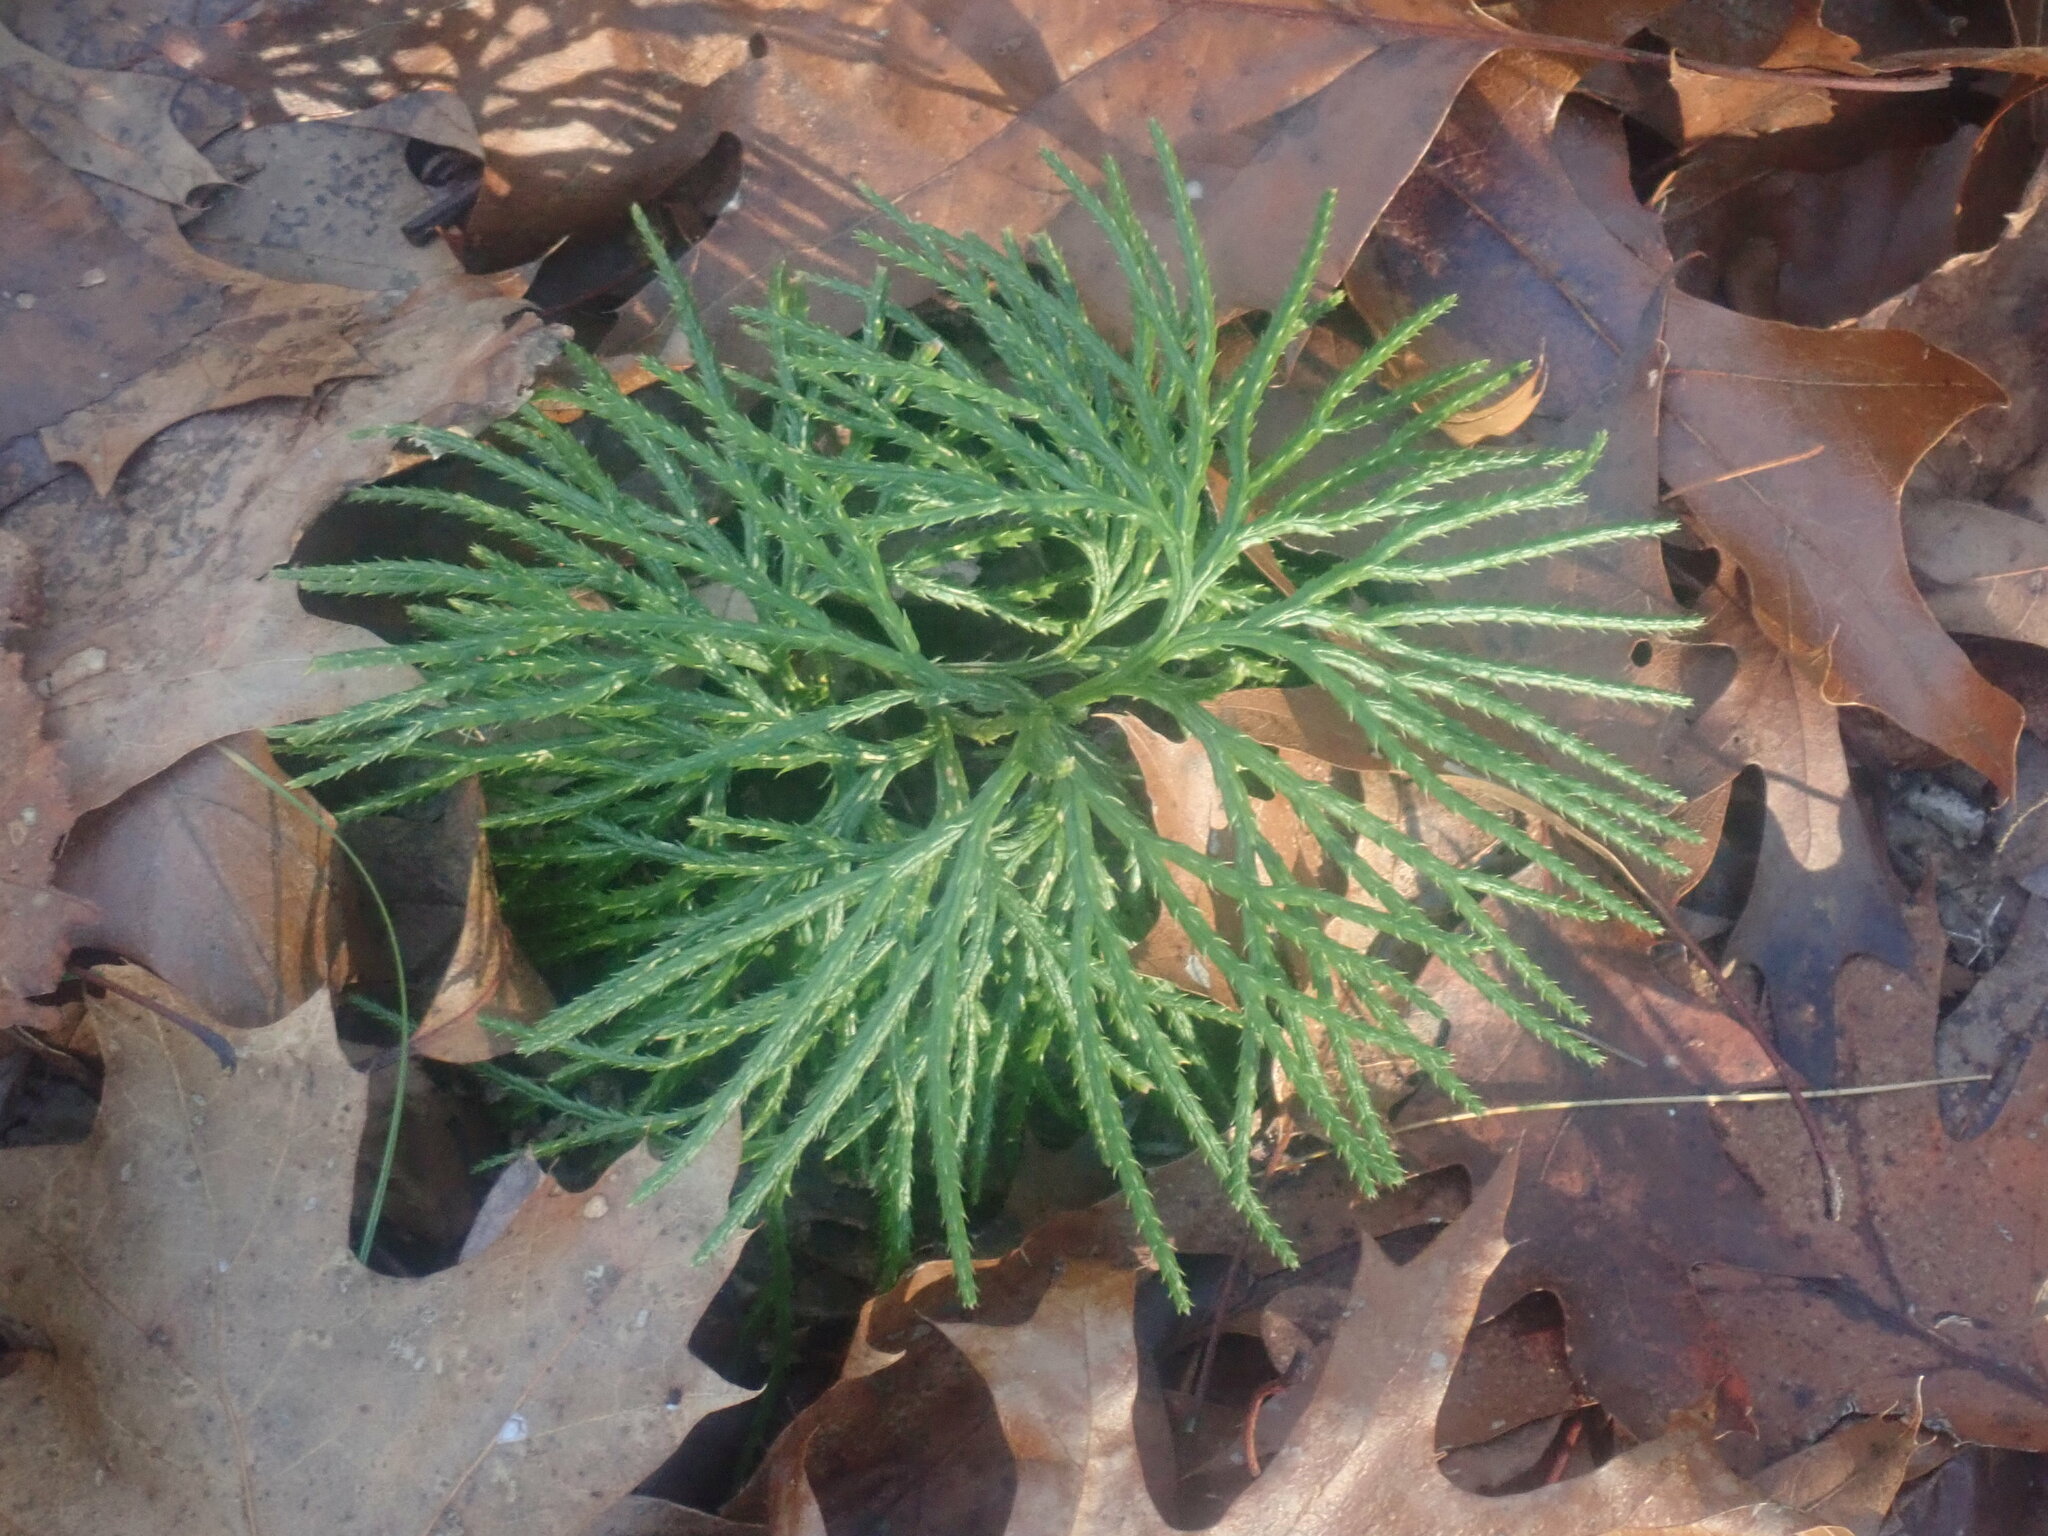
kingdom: Plantae
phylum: Tracheophyta
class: Lycopodiopsida
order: Lycopodiales
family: Lycopodiaceae
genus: Diphasiastrum
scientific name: Diphasiastrum digitatum
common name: Southern running-pine
